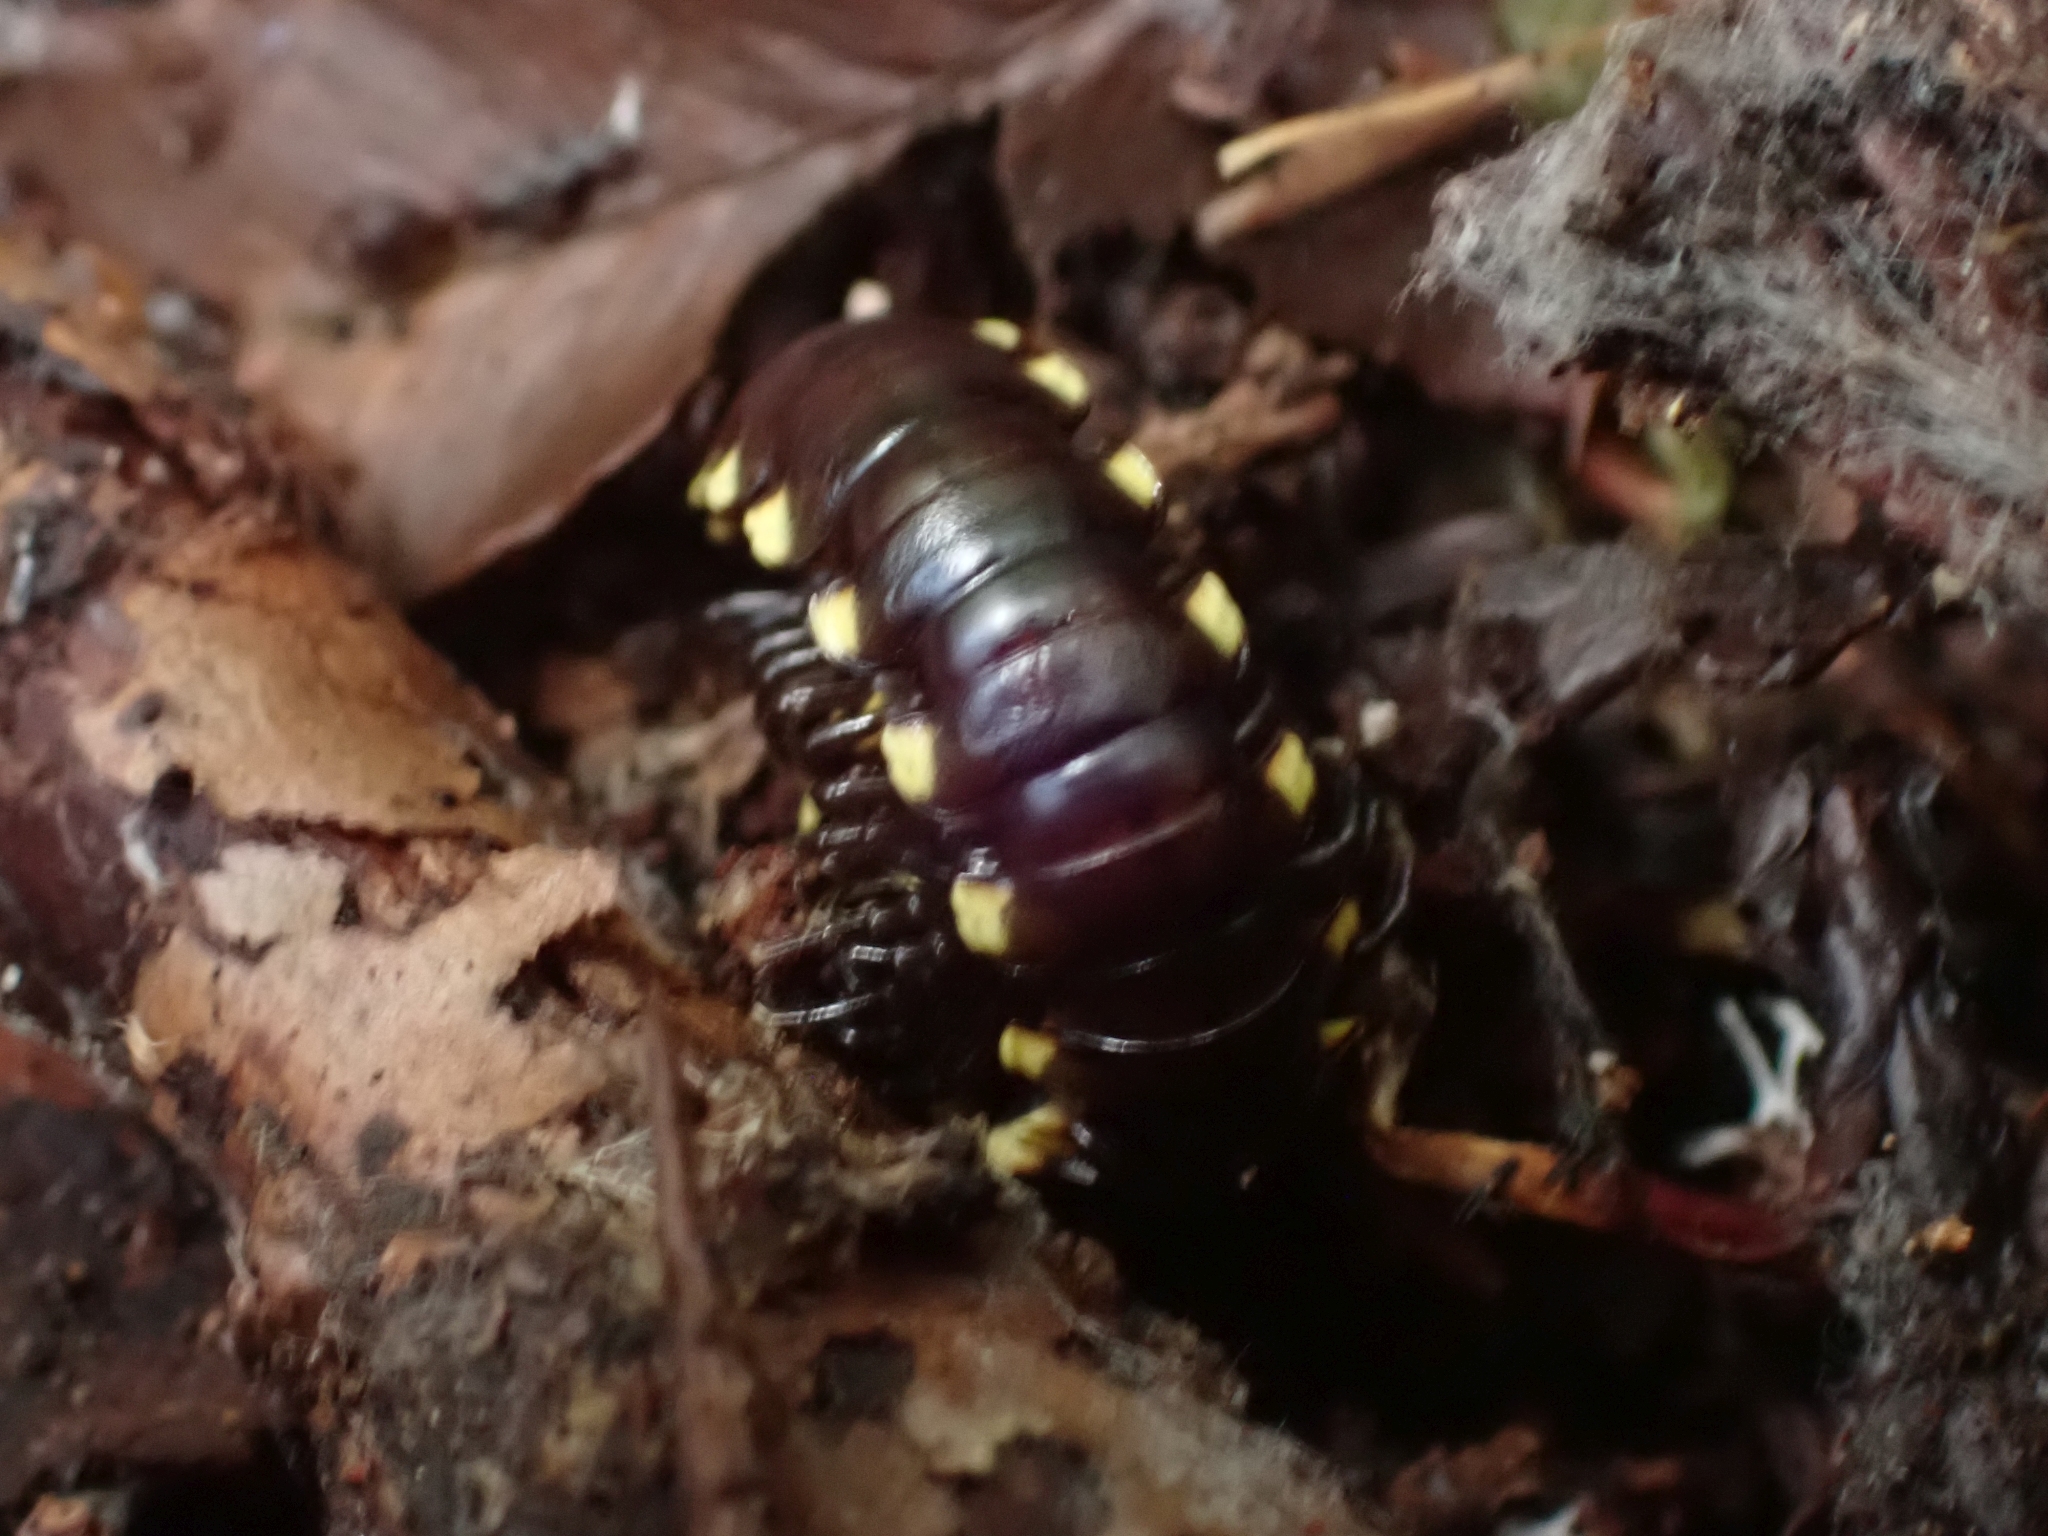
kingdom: Animalia
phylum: Arthropoda
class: Diplopoda
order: Polydesmida
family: Xystodesmidae
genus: Harpaphe
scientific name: Harpaphe haydeniana
